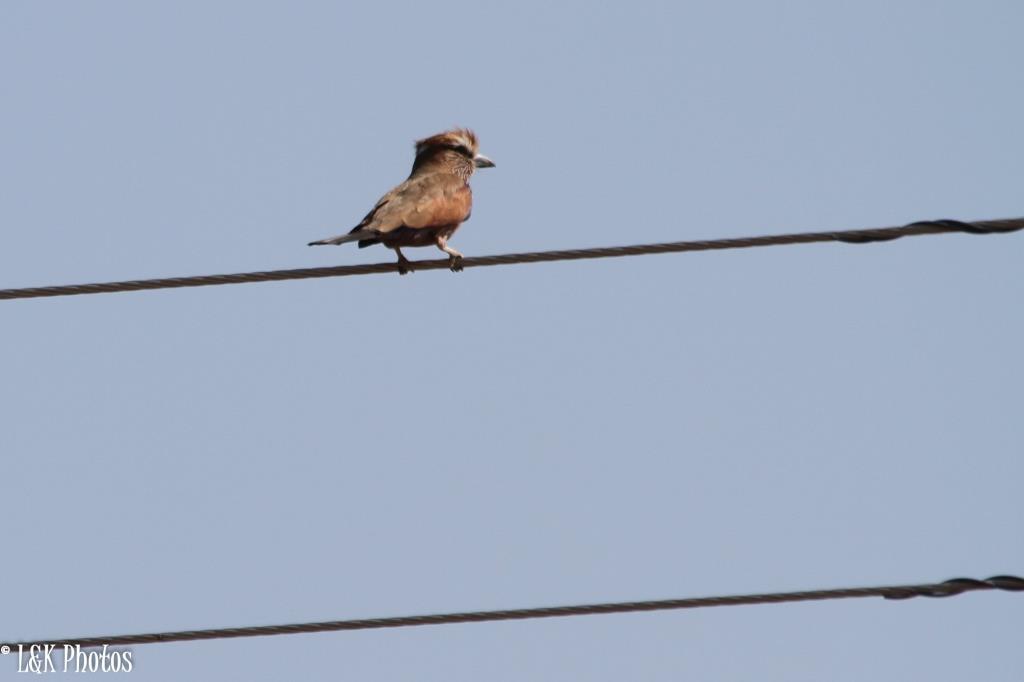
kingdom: Animalia
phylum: Chordata
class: Aves
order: Coraciiformes
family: Coraciidae
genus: Coracias
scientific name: Coracias naevius
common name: Purple roller
